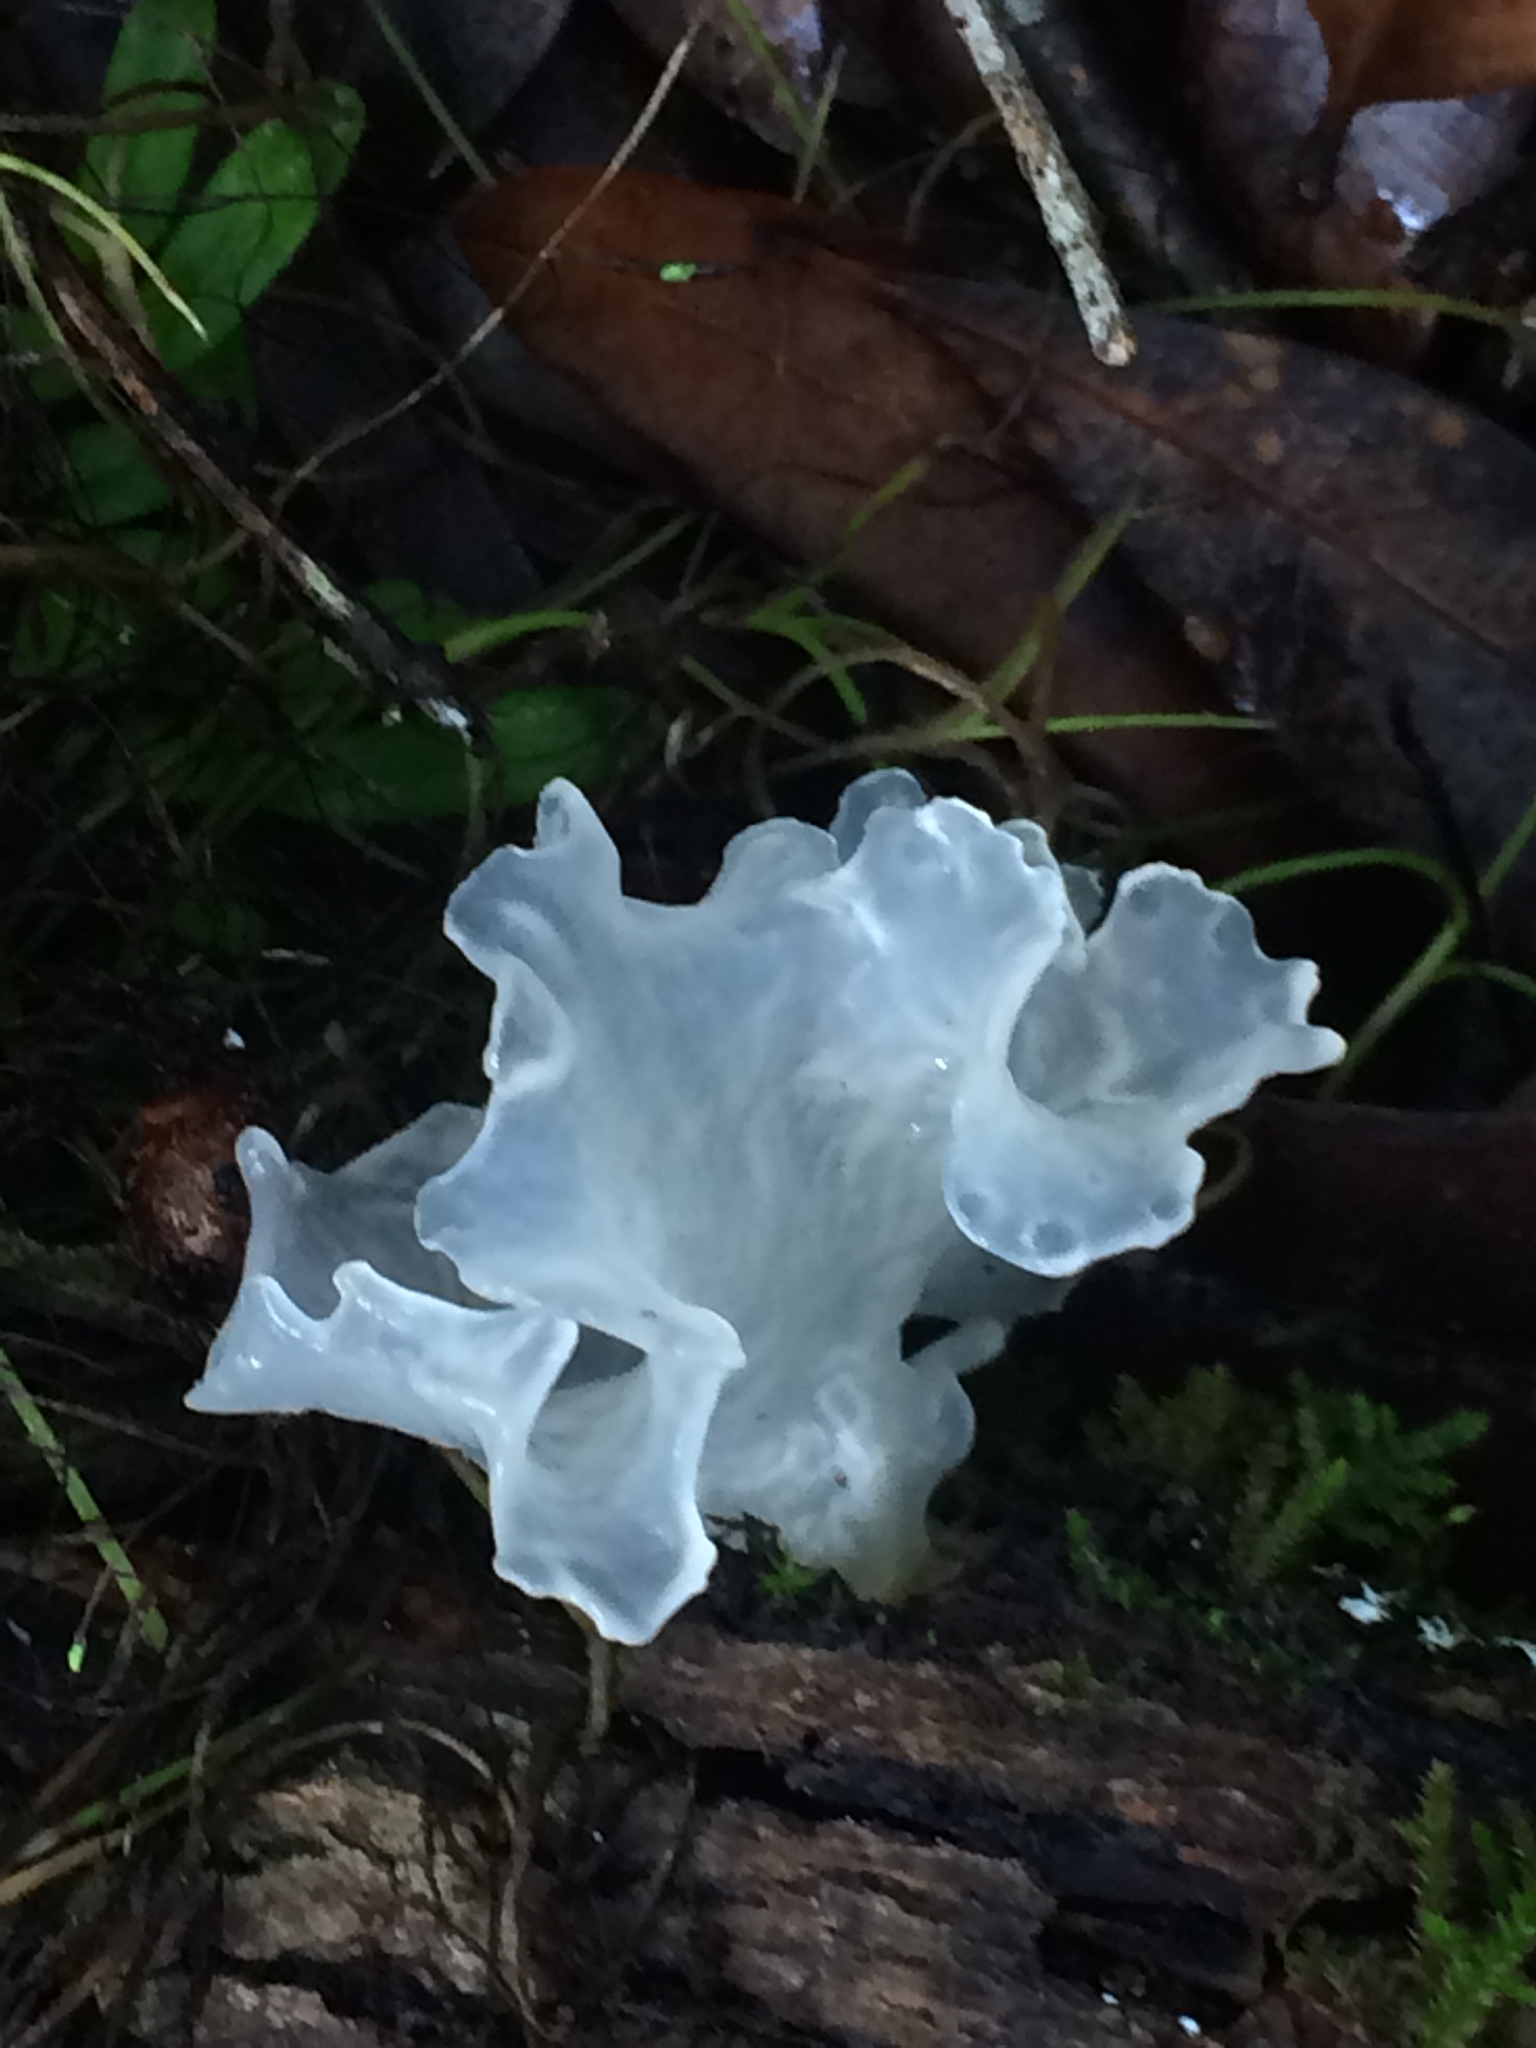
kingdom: Fungi
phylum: Basidiomycota
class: Tremellomycetes
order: Tremellales
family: Tremellaceae
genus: Tremella
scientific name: Tremella fuciformis
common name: Snow fungus
